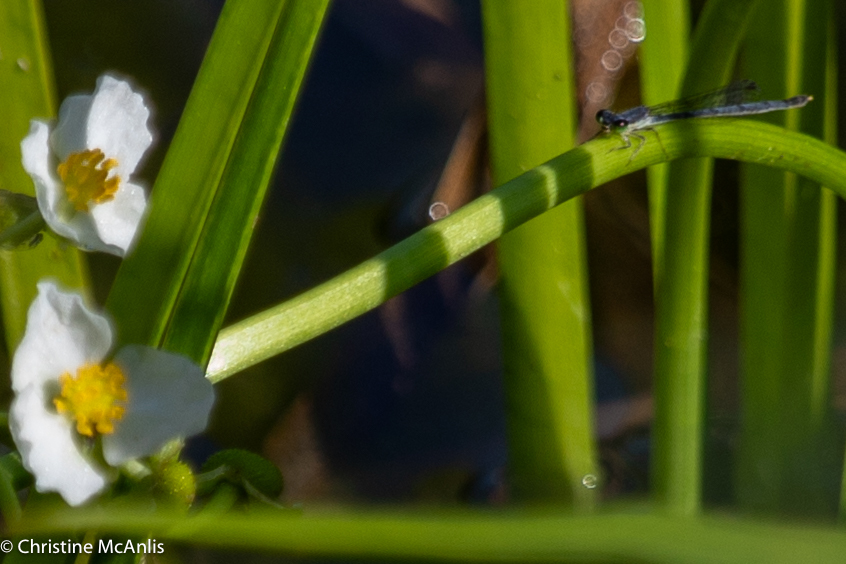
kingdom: Animalia
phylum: Arthropoda
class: Insecta
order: Odonata
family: Coenagrionidae
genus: Ischnura
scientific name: Ischnura posita
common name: Fragile forktail
